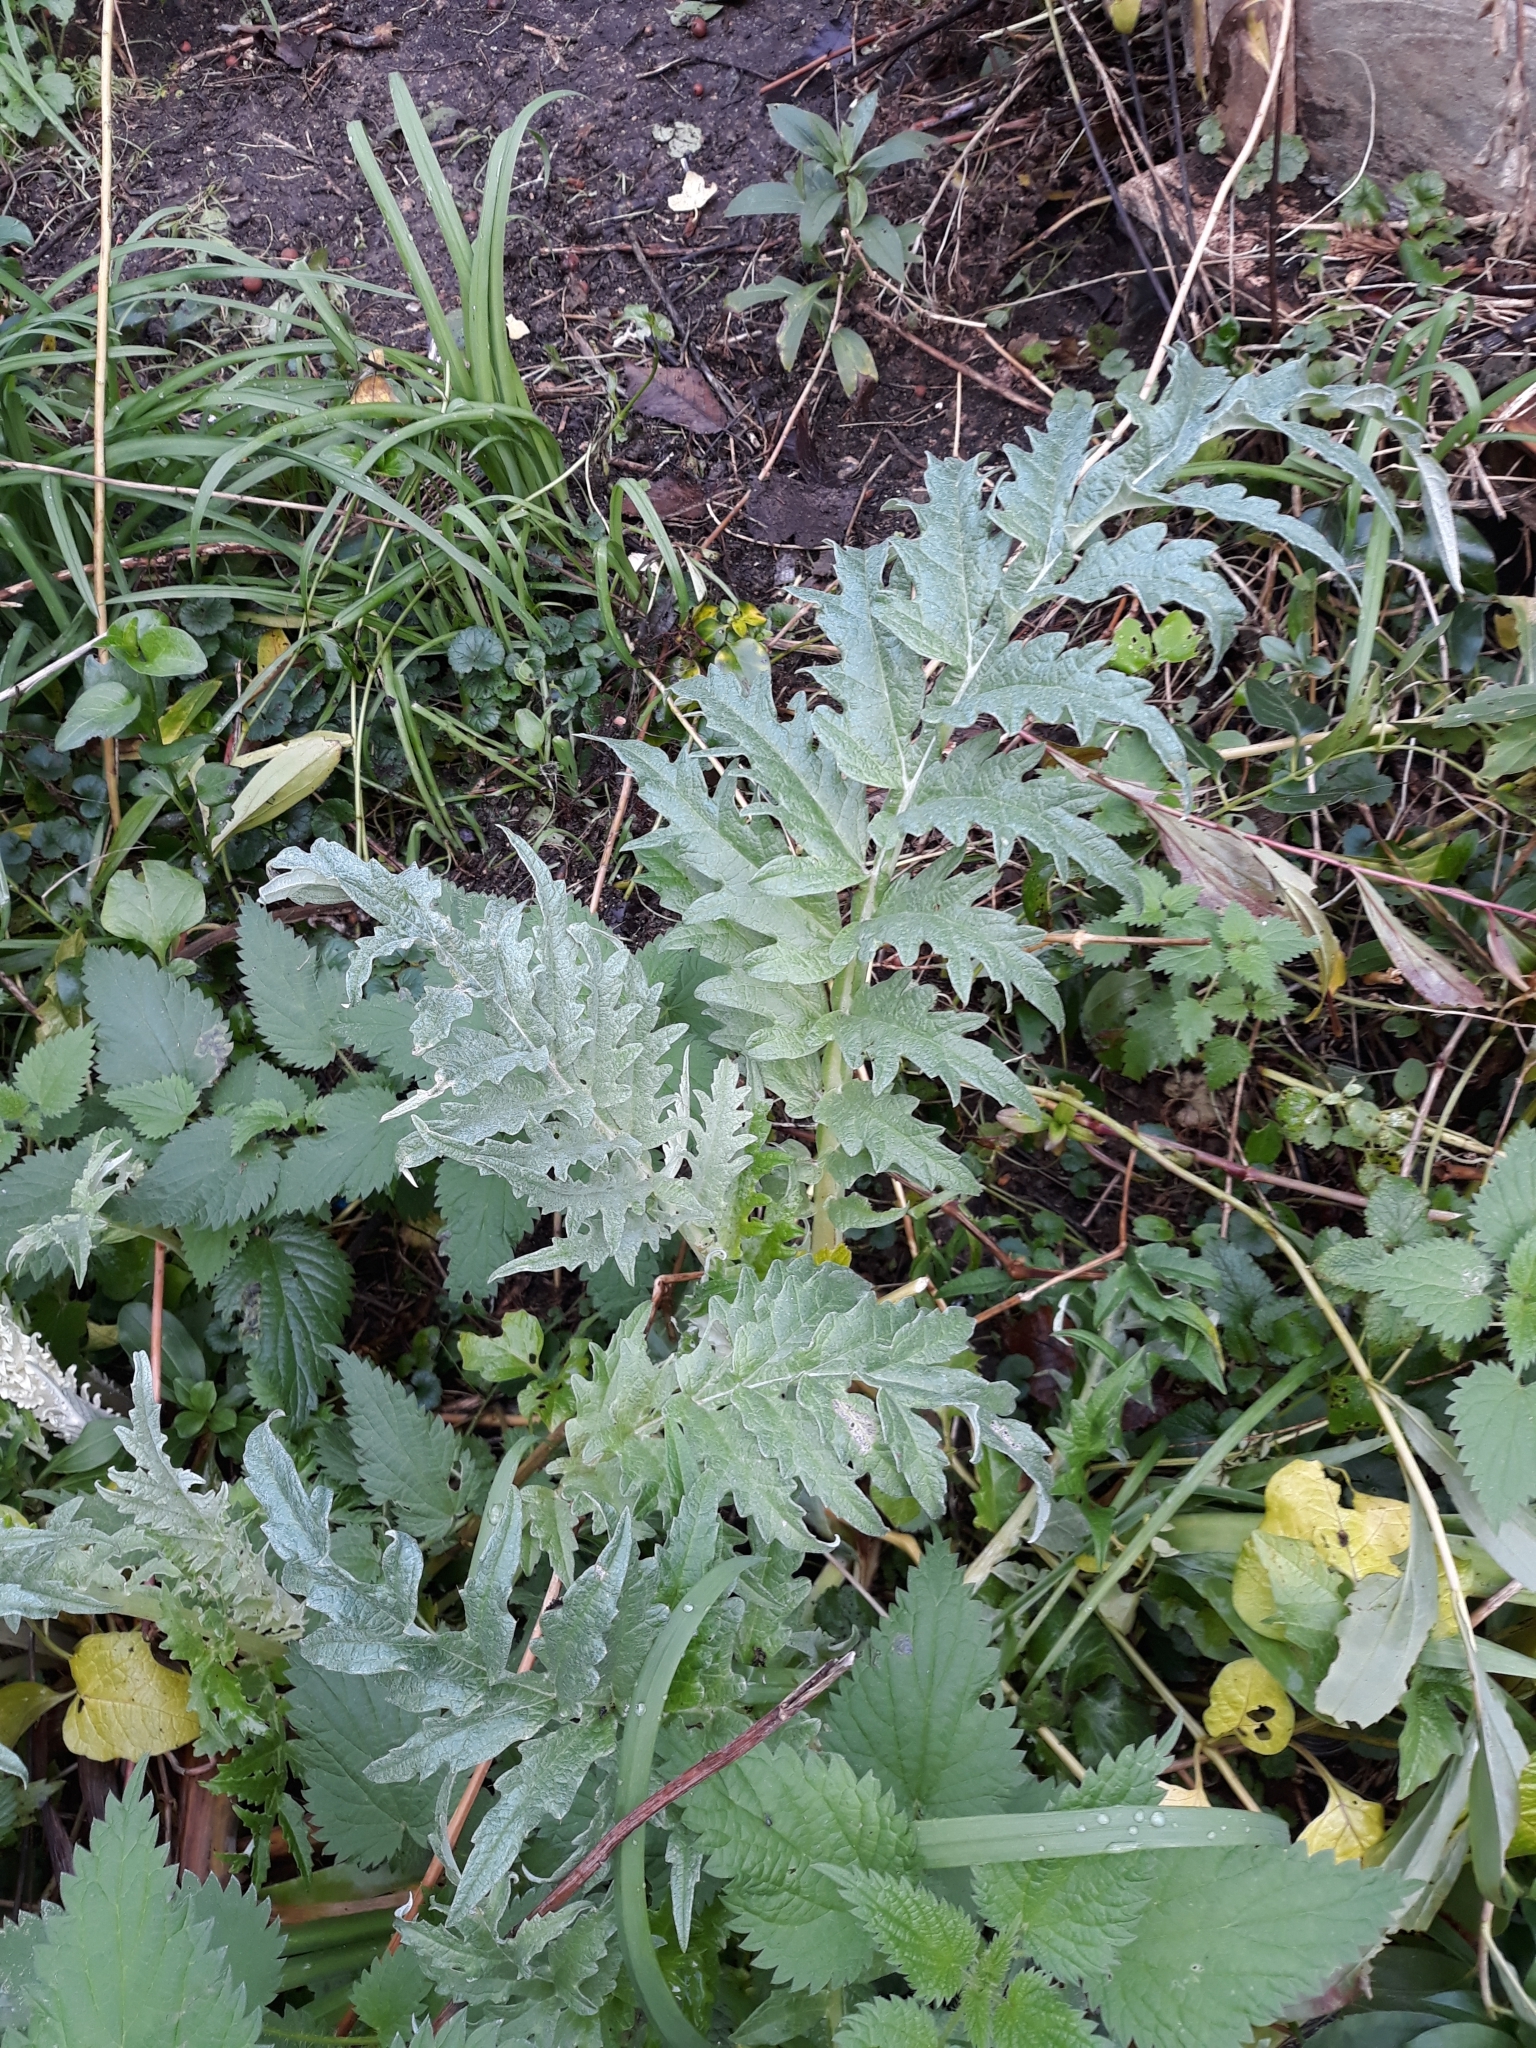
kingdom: Plantae
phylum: Tracheophyta
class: Magnoliopsida
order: Asterales
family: Asteraceae
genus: Cynara
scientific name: Cynara cardunculus
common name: Globe artichoke
